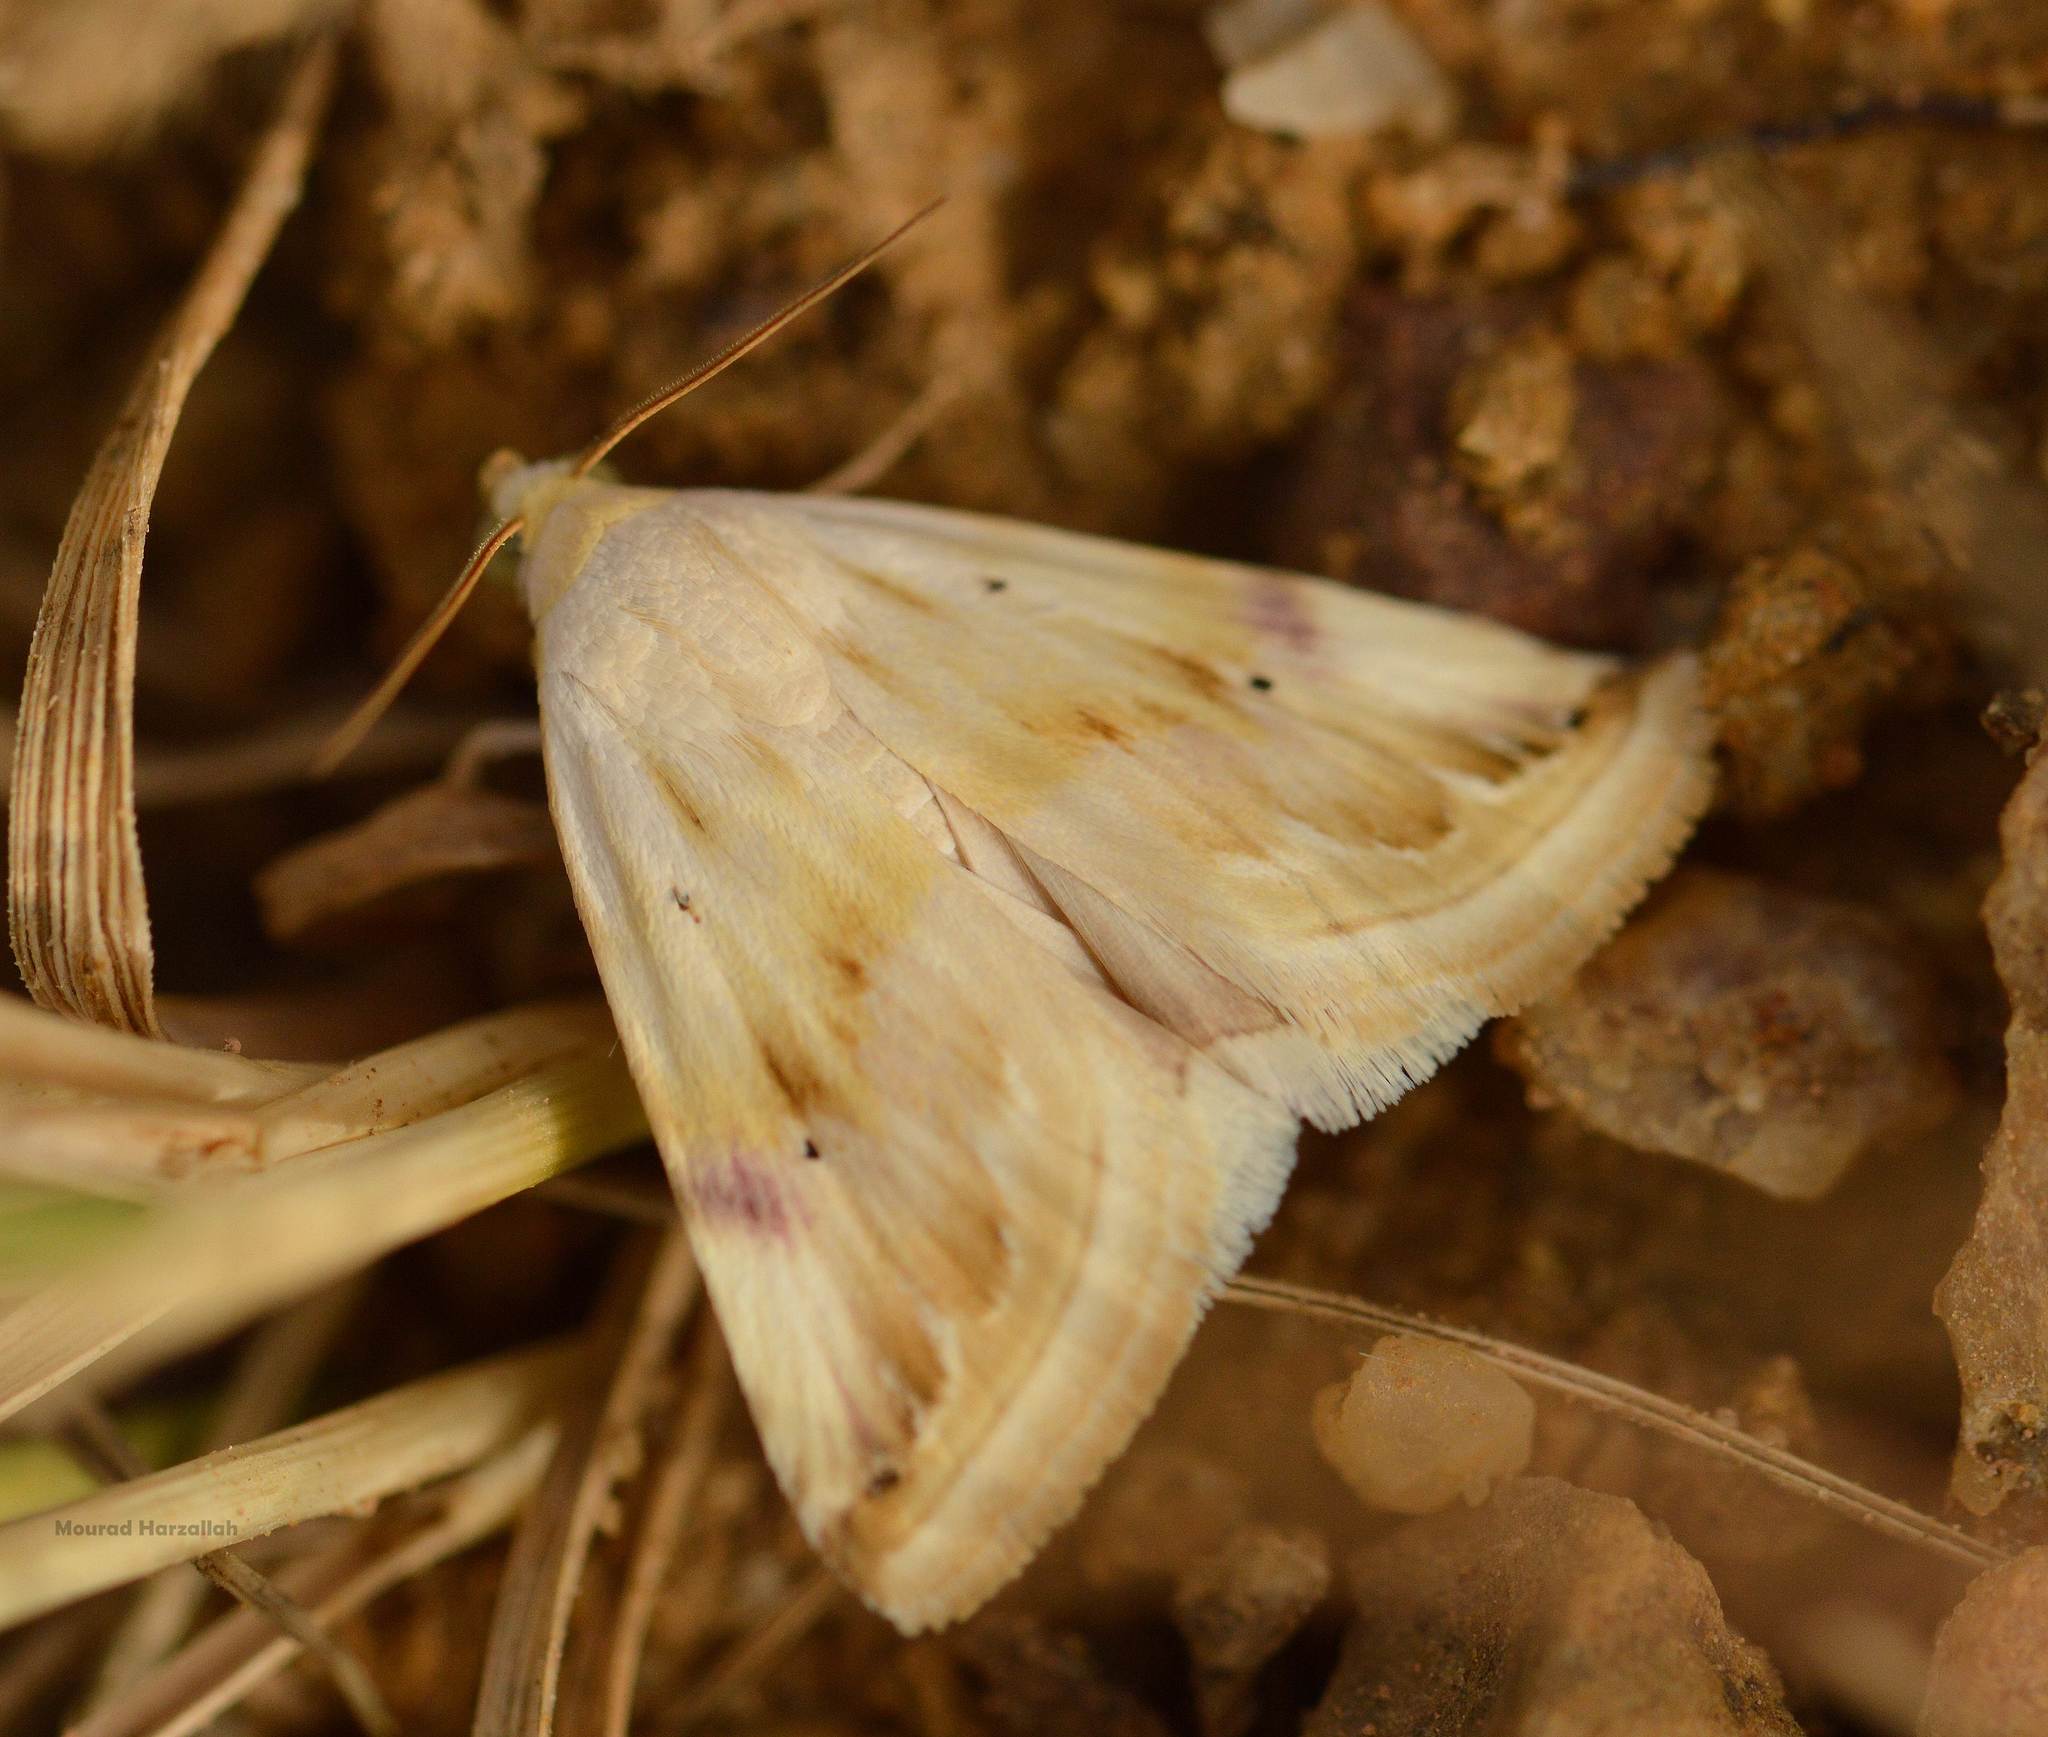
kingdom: Animalia
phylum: Arthropoda
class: Insecta
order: Lepidoptera
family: Noctuidae
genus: Eublemma
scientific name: Eublemma ostrina
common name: Purple marbled
